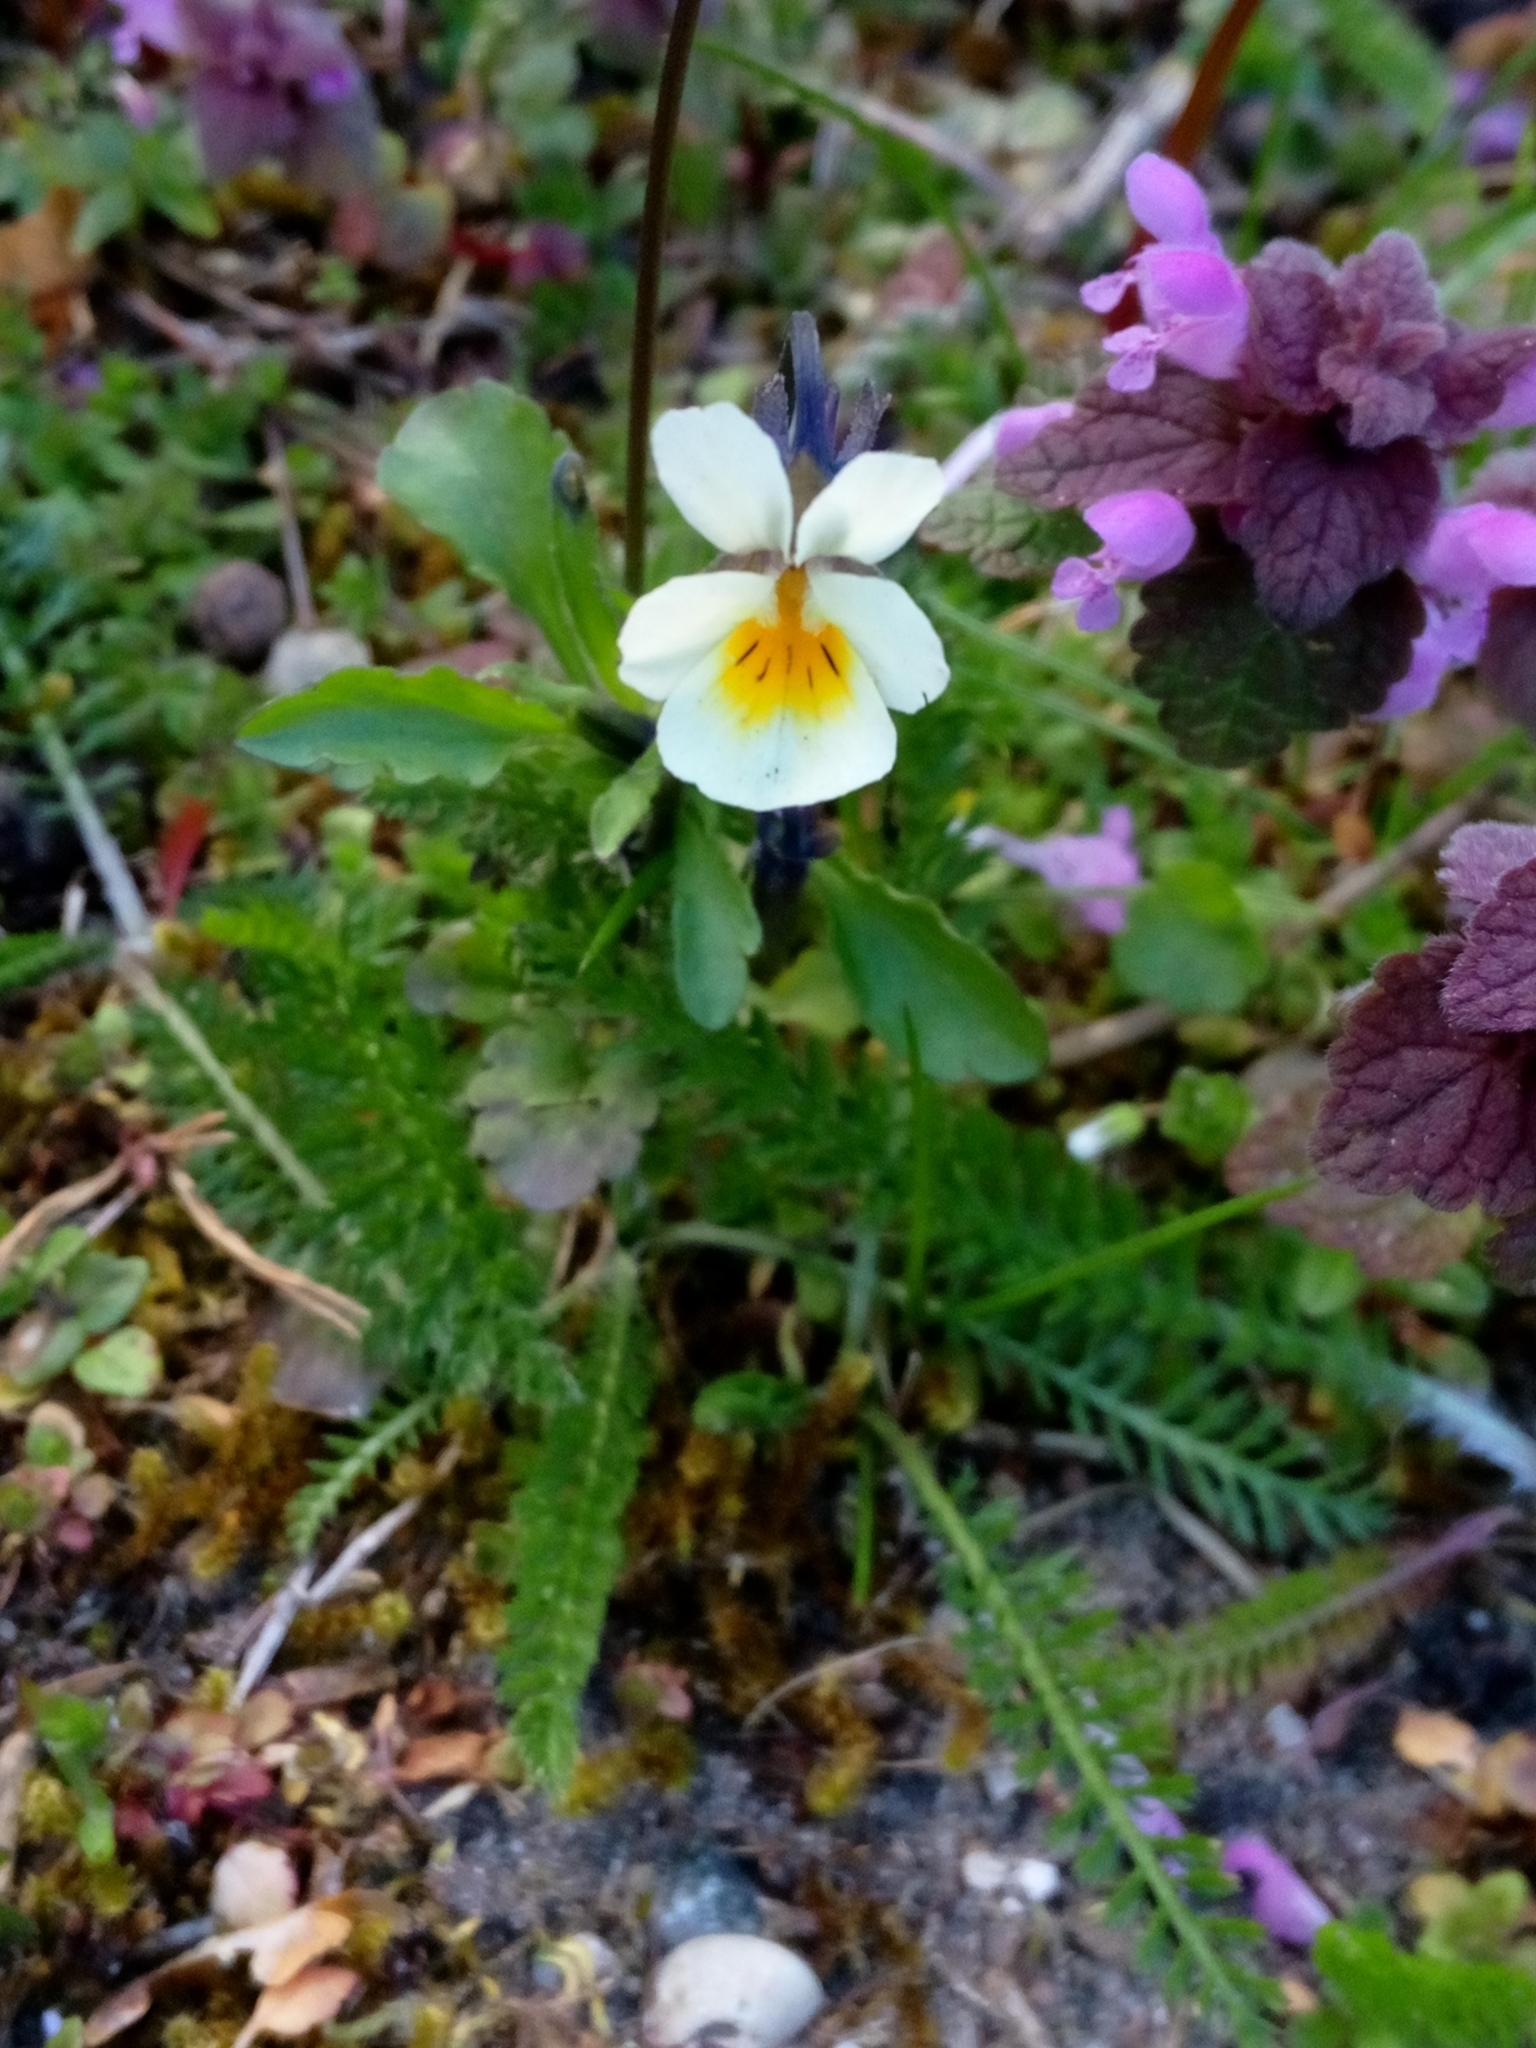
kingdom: Plantae
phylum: Tracheophyta
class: Magnoliopsida
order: Malpighiales
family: Violaceae
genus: Viola
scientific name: Viola arvensis
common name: Field pansy
